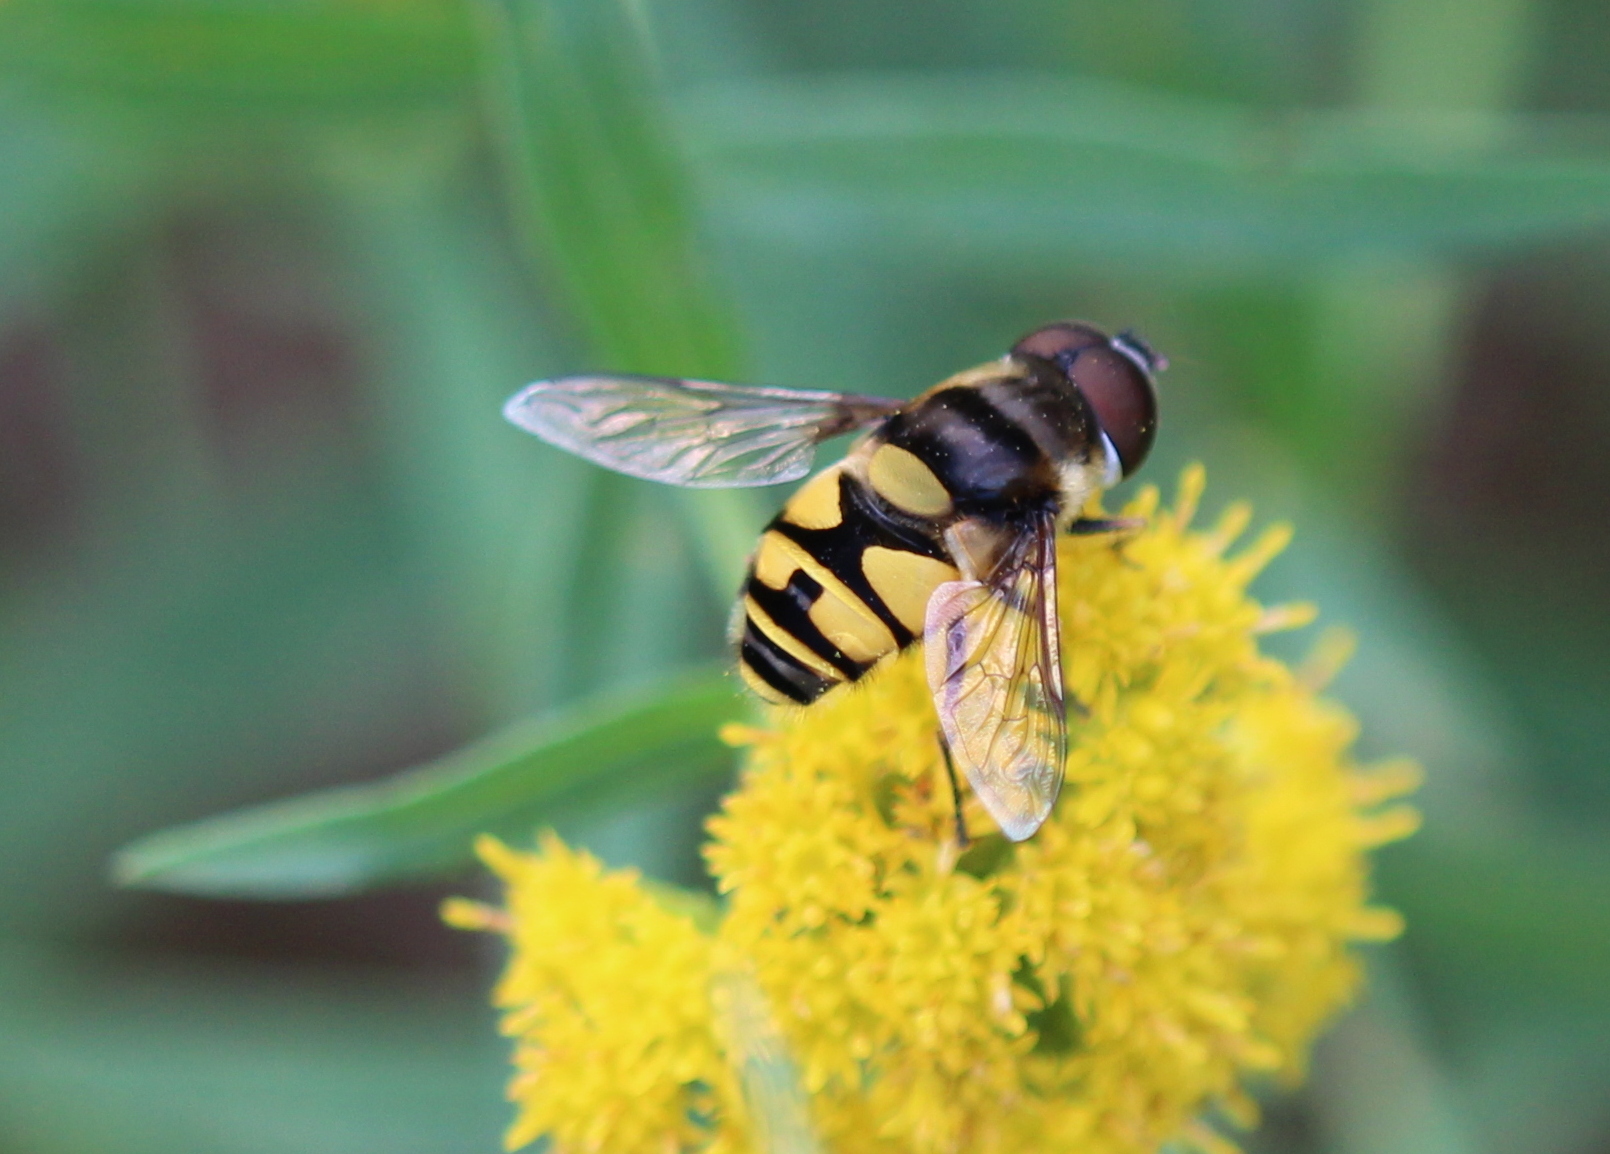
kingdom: Animalia
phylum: Arthropoda
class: Insecta
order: Diptera
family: Syrphidae
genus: Eristalis
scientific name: Eristalis transversa
